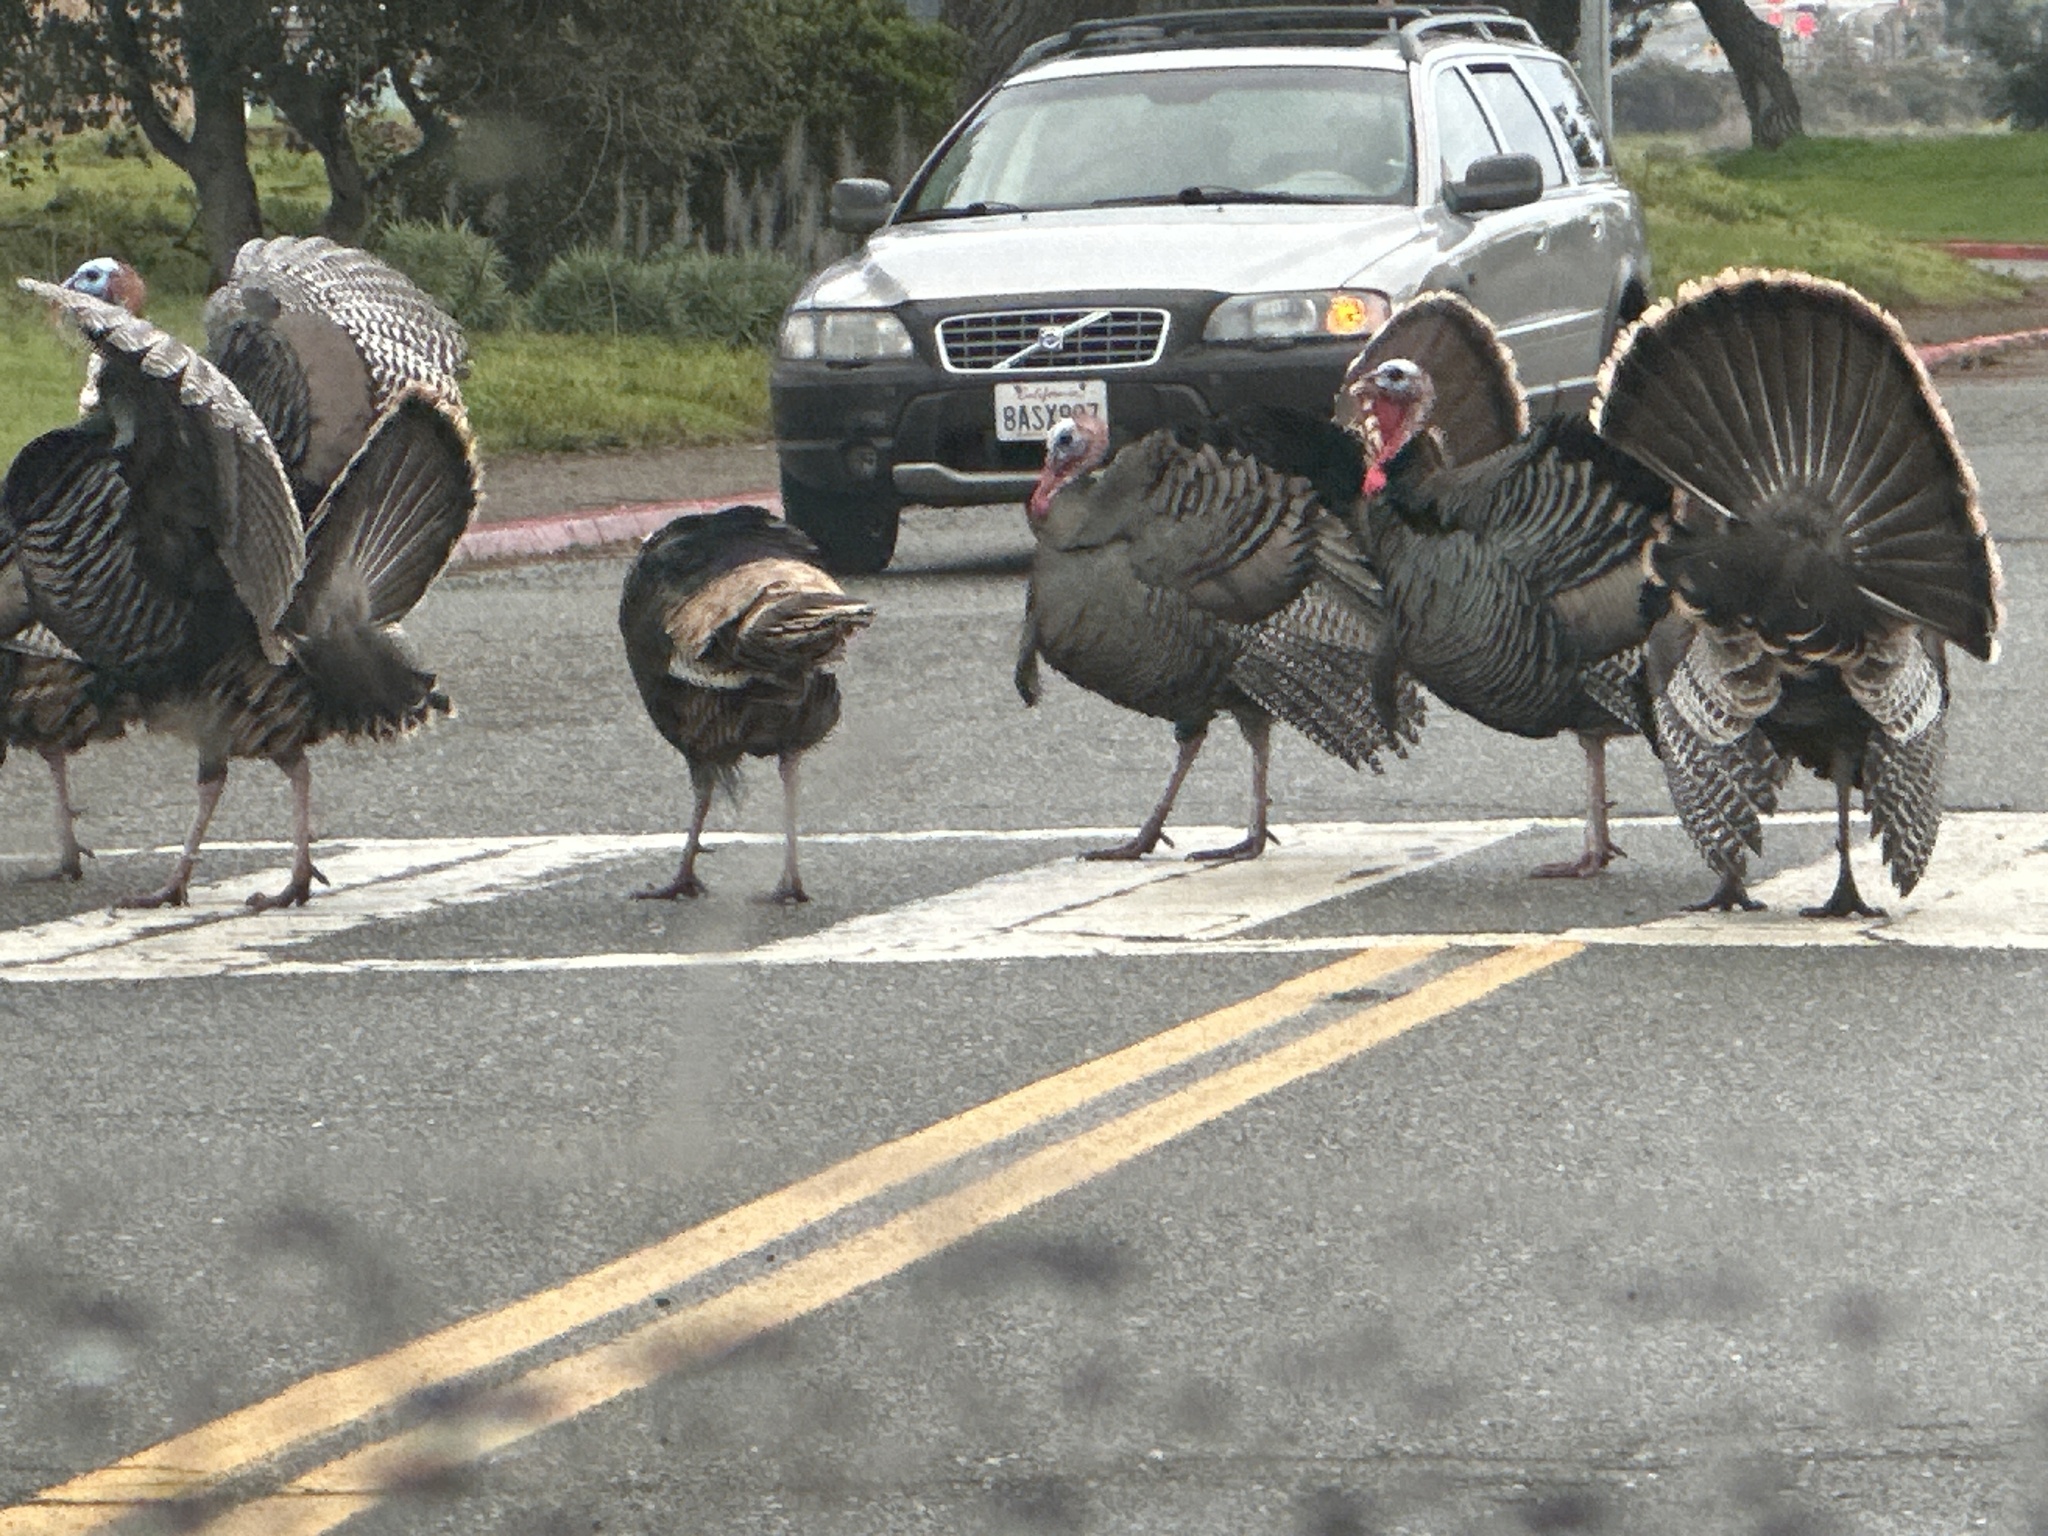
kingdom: Animalia
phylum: Chordata
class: Aves
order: Galliformes
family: Phasianidae
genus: Meleagris
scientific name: Meleagris gallopavo
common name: Wild turkey
